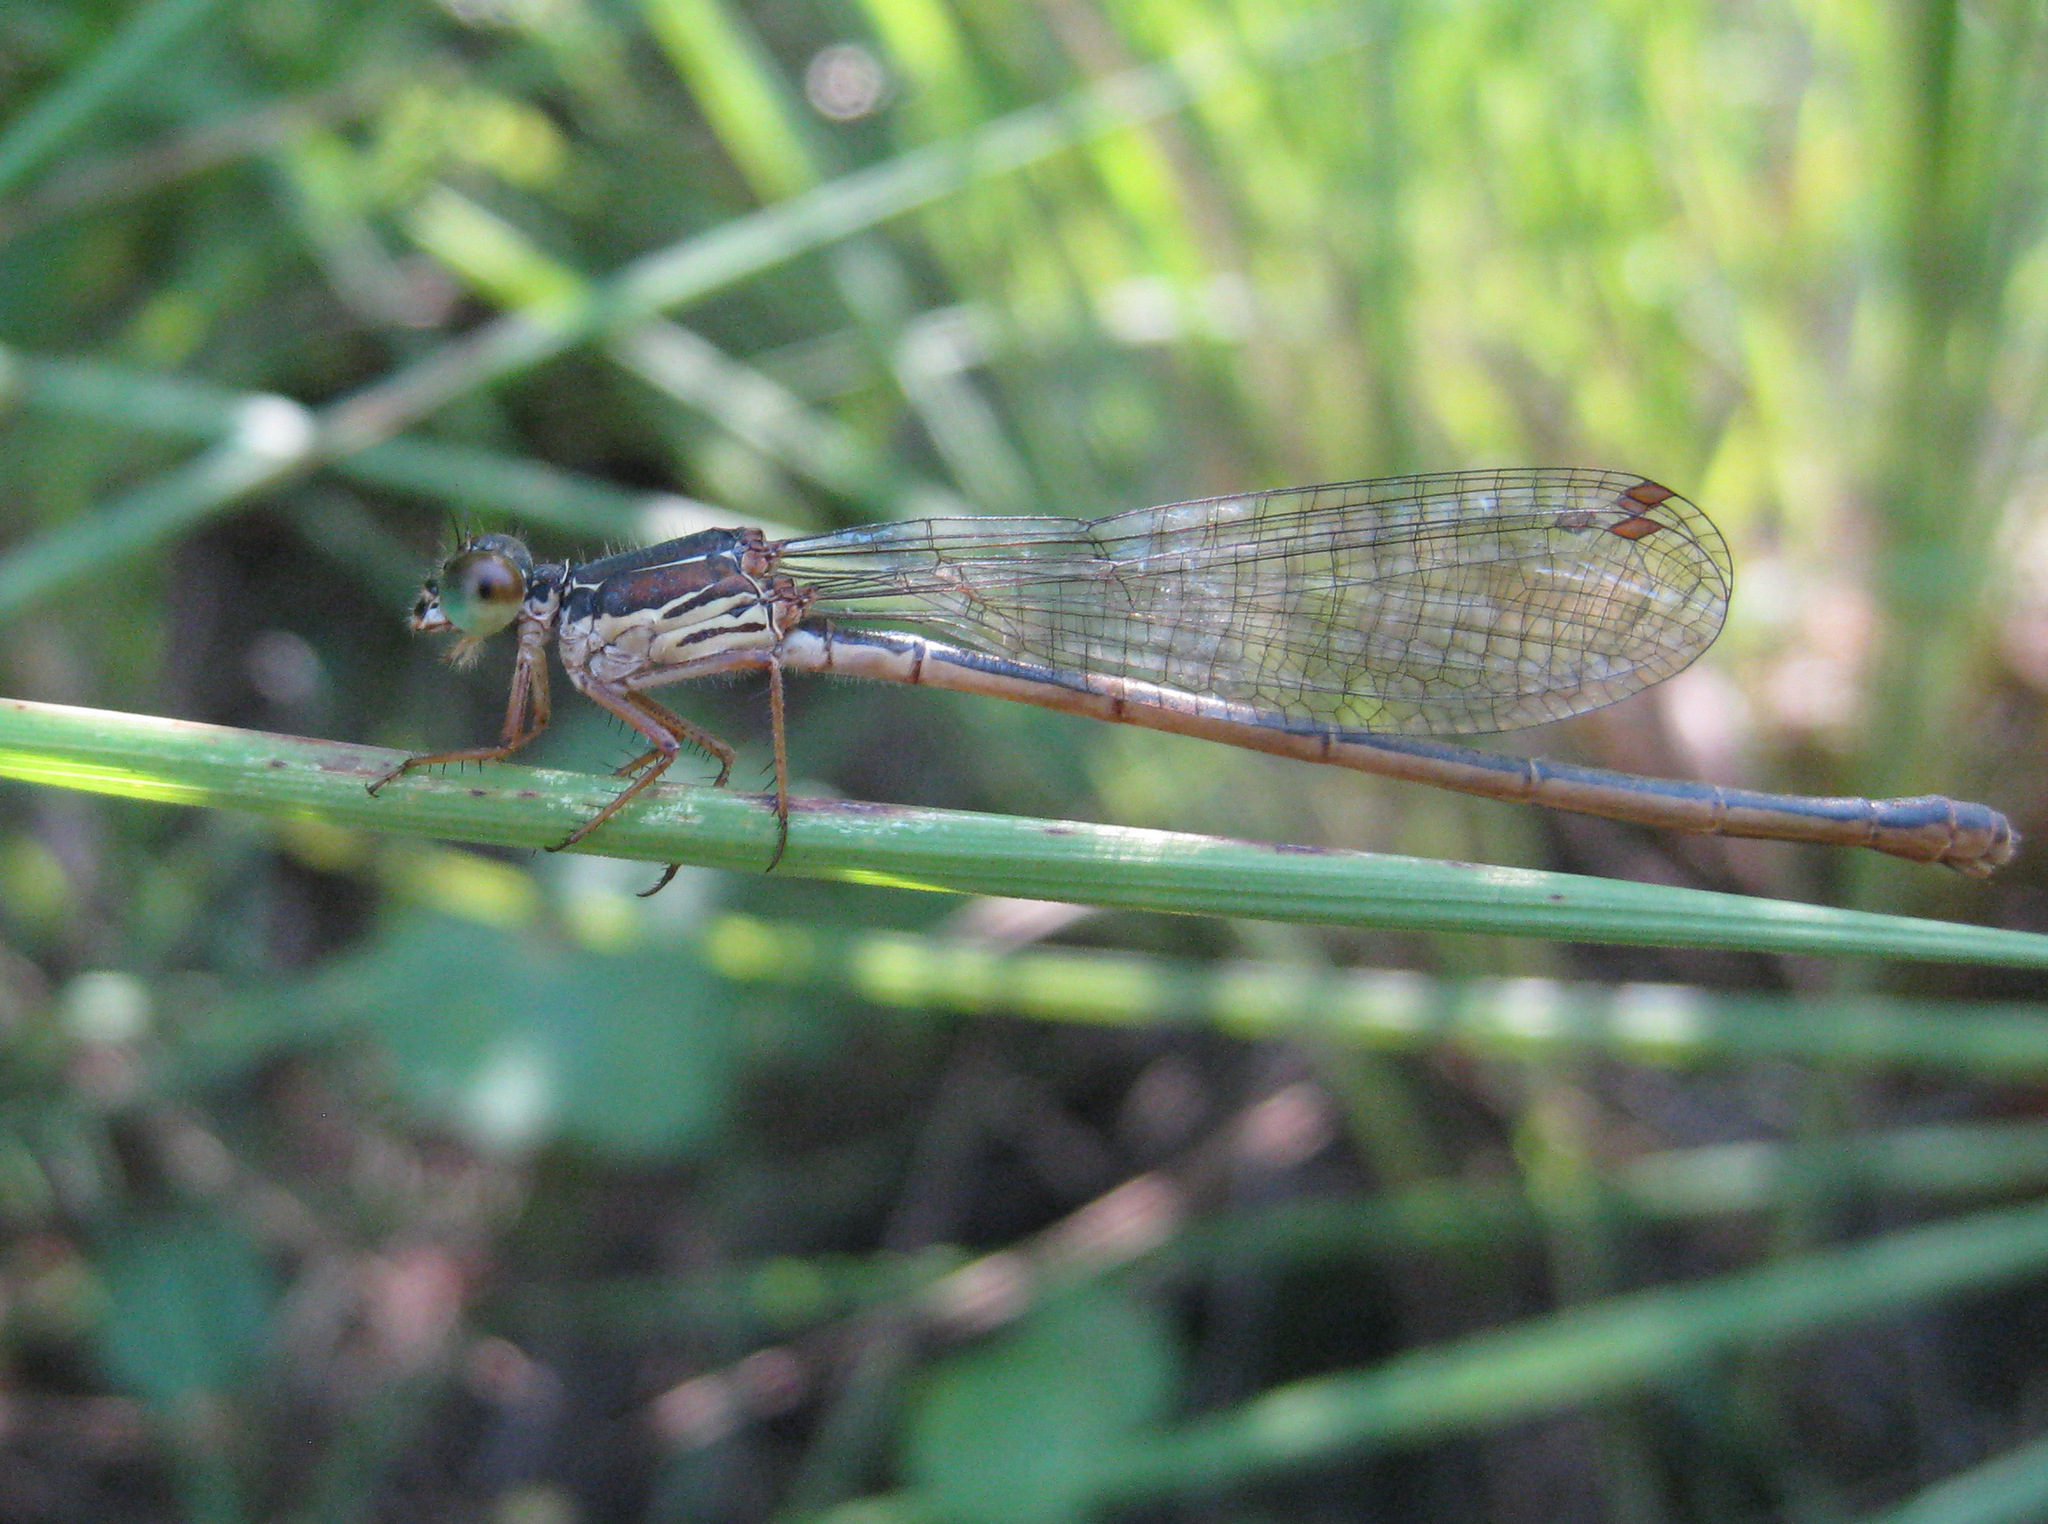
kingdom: Animalia
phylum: Arthropoda
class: Insecta
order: Odonata
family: Coenagrionidae
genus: Ceriagrion
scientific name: Ceriagrion tenellum
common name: Small red damselfly
